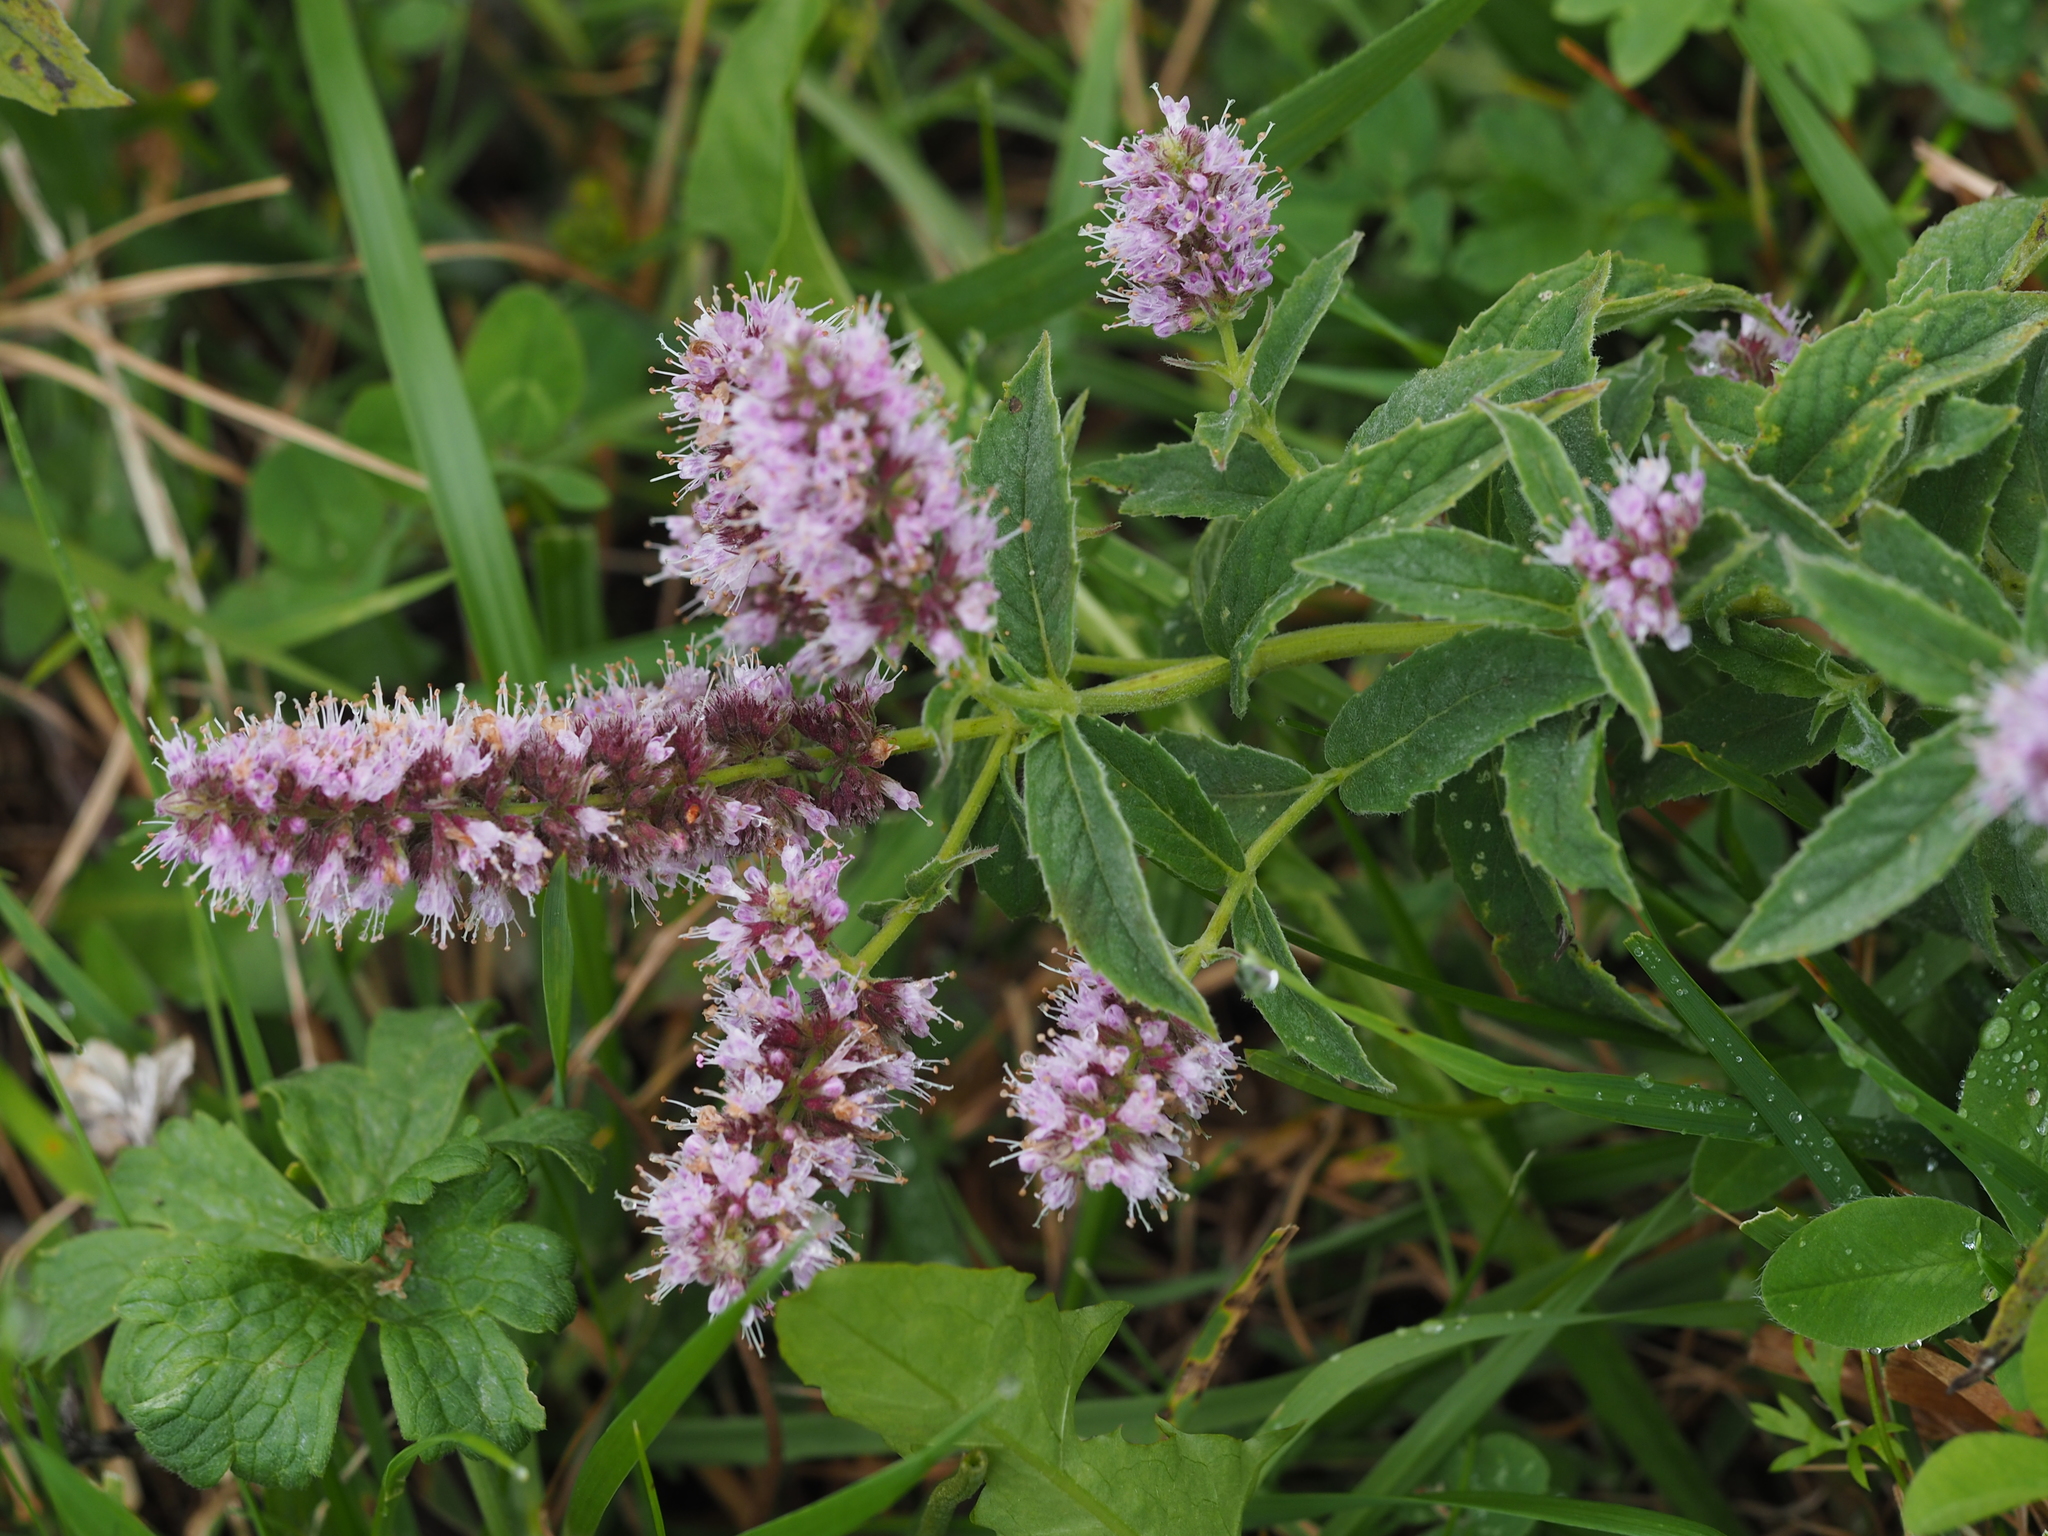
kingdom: Plantae
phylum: Tracheophyta
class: Magnoliopsida
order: Lamiales
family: Lamiaceae
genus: Mentha
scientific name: Mentha longifolia
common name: Horse mint
